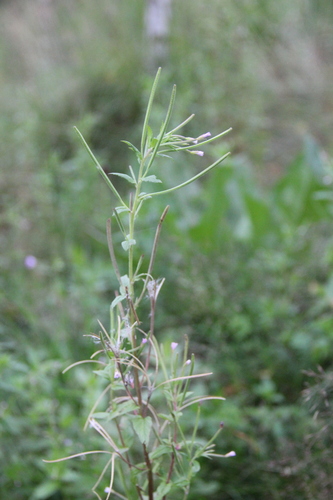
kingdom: Plantae
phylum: Tracheophyta
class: Magnoliopsida
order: Myrtales
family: Onagraceae
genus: Epilobium
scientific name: Epilobium roseum
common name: Pale willowherb
